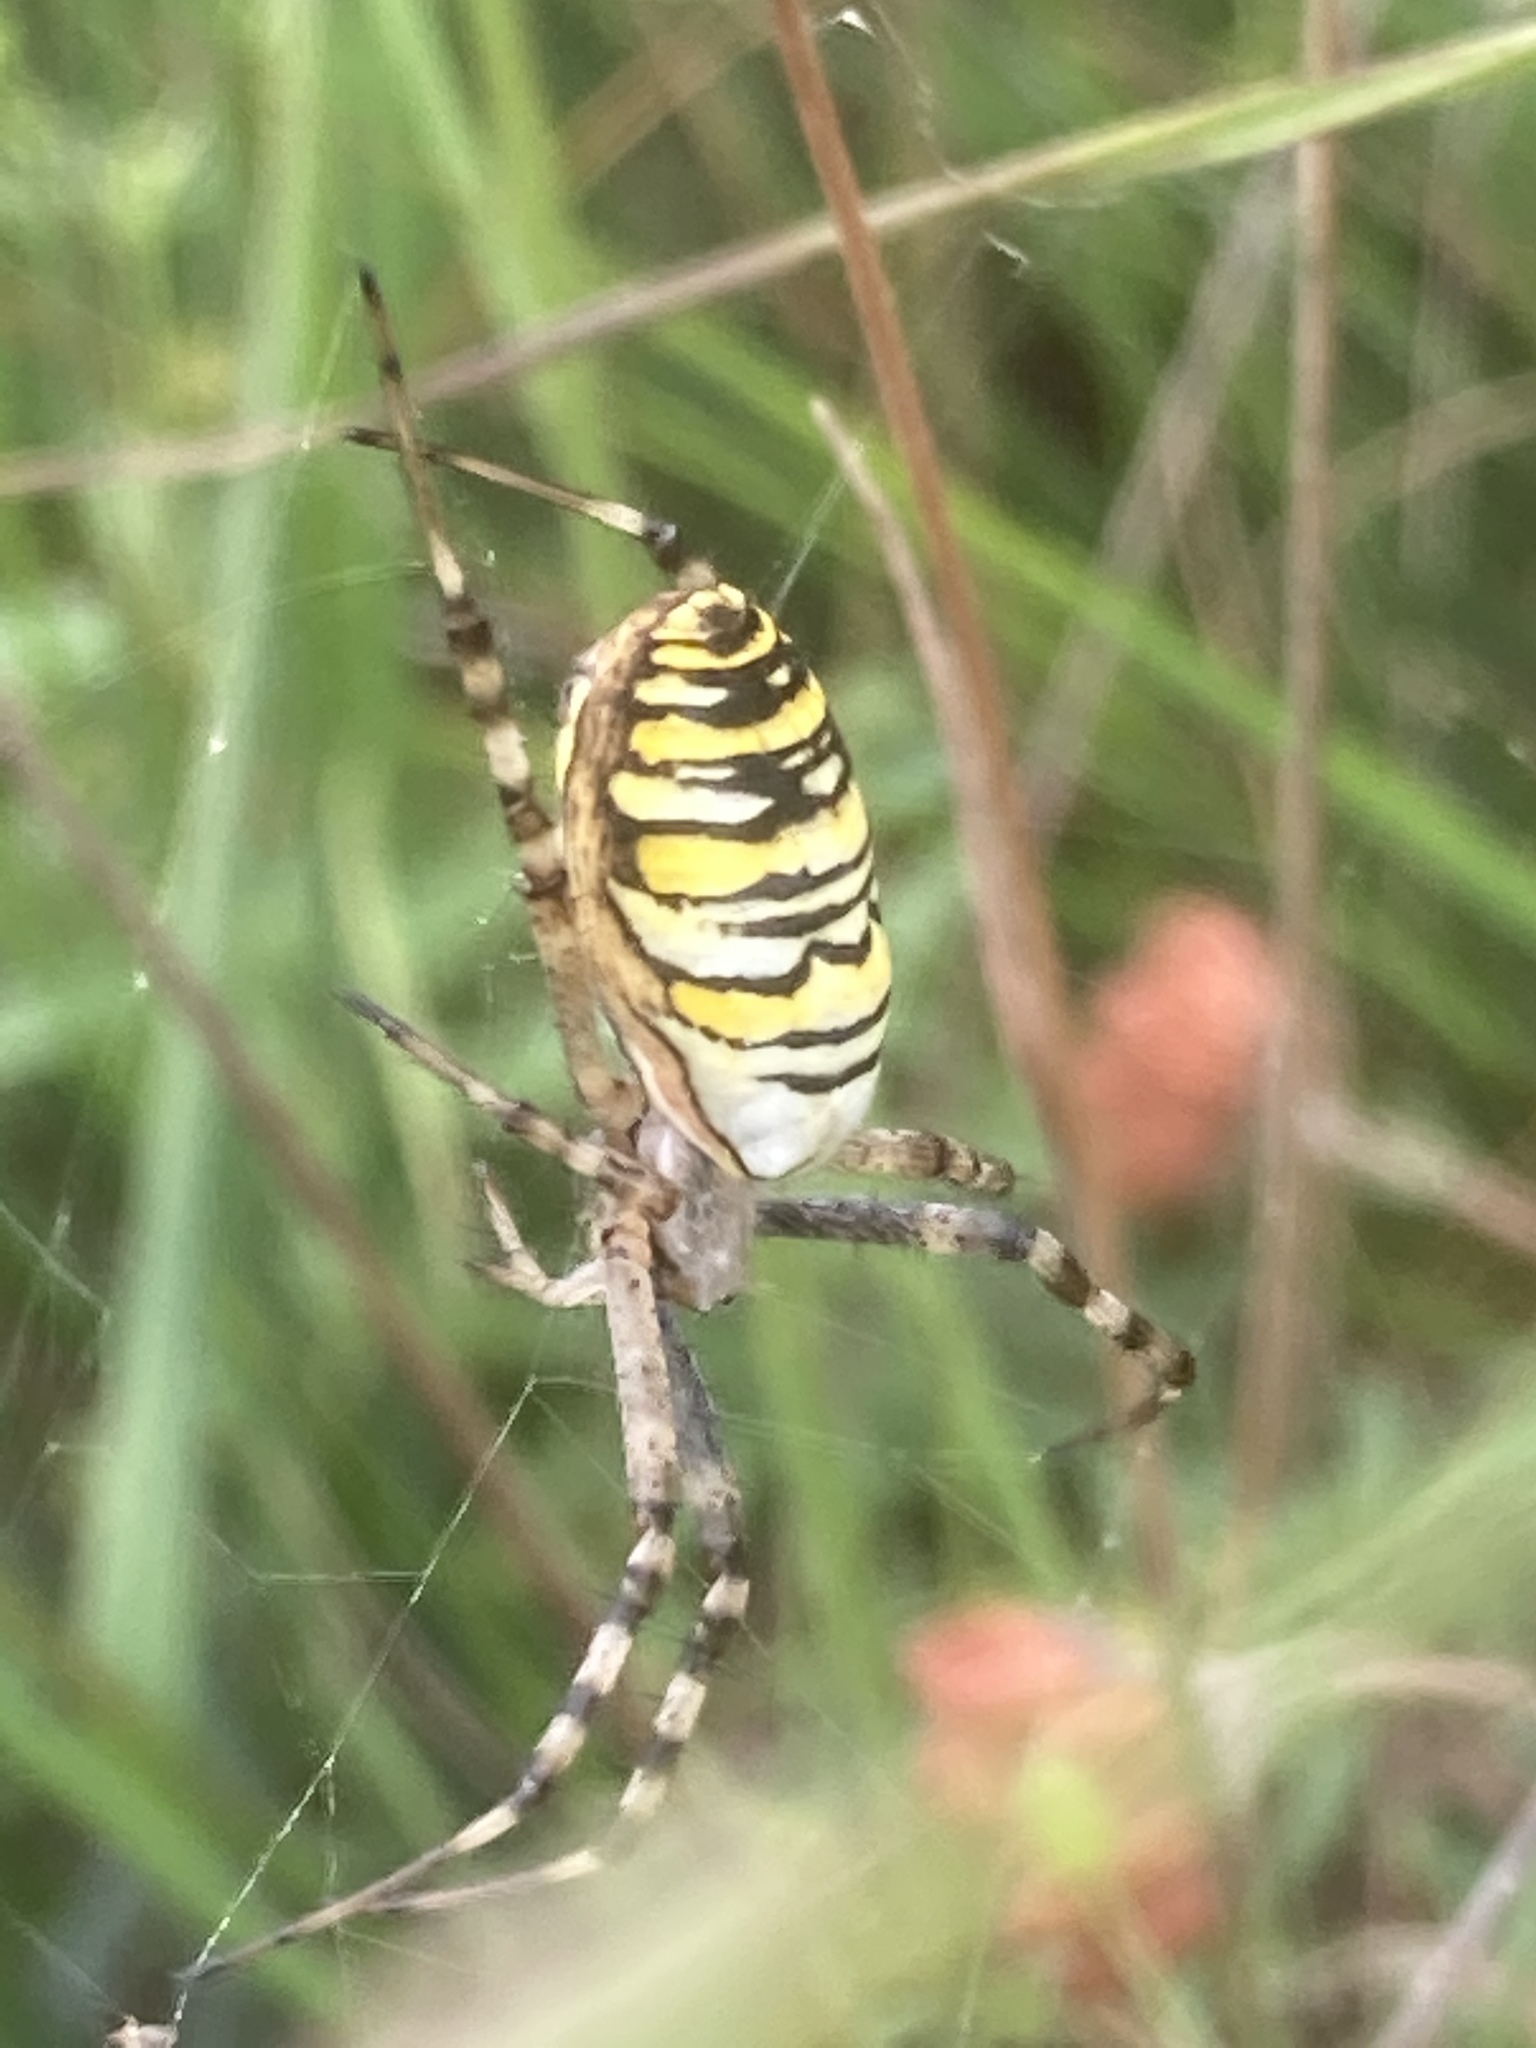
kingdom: Animalia
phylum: Arthropoda
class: Arachnida
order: Araneae
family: Araneidae
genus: Argiope
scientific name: Argiope bruennichi
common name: Wasp spider
